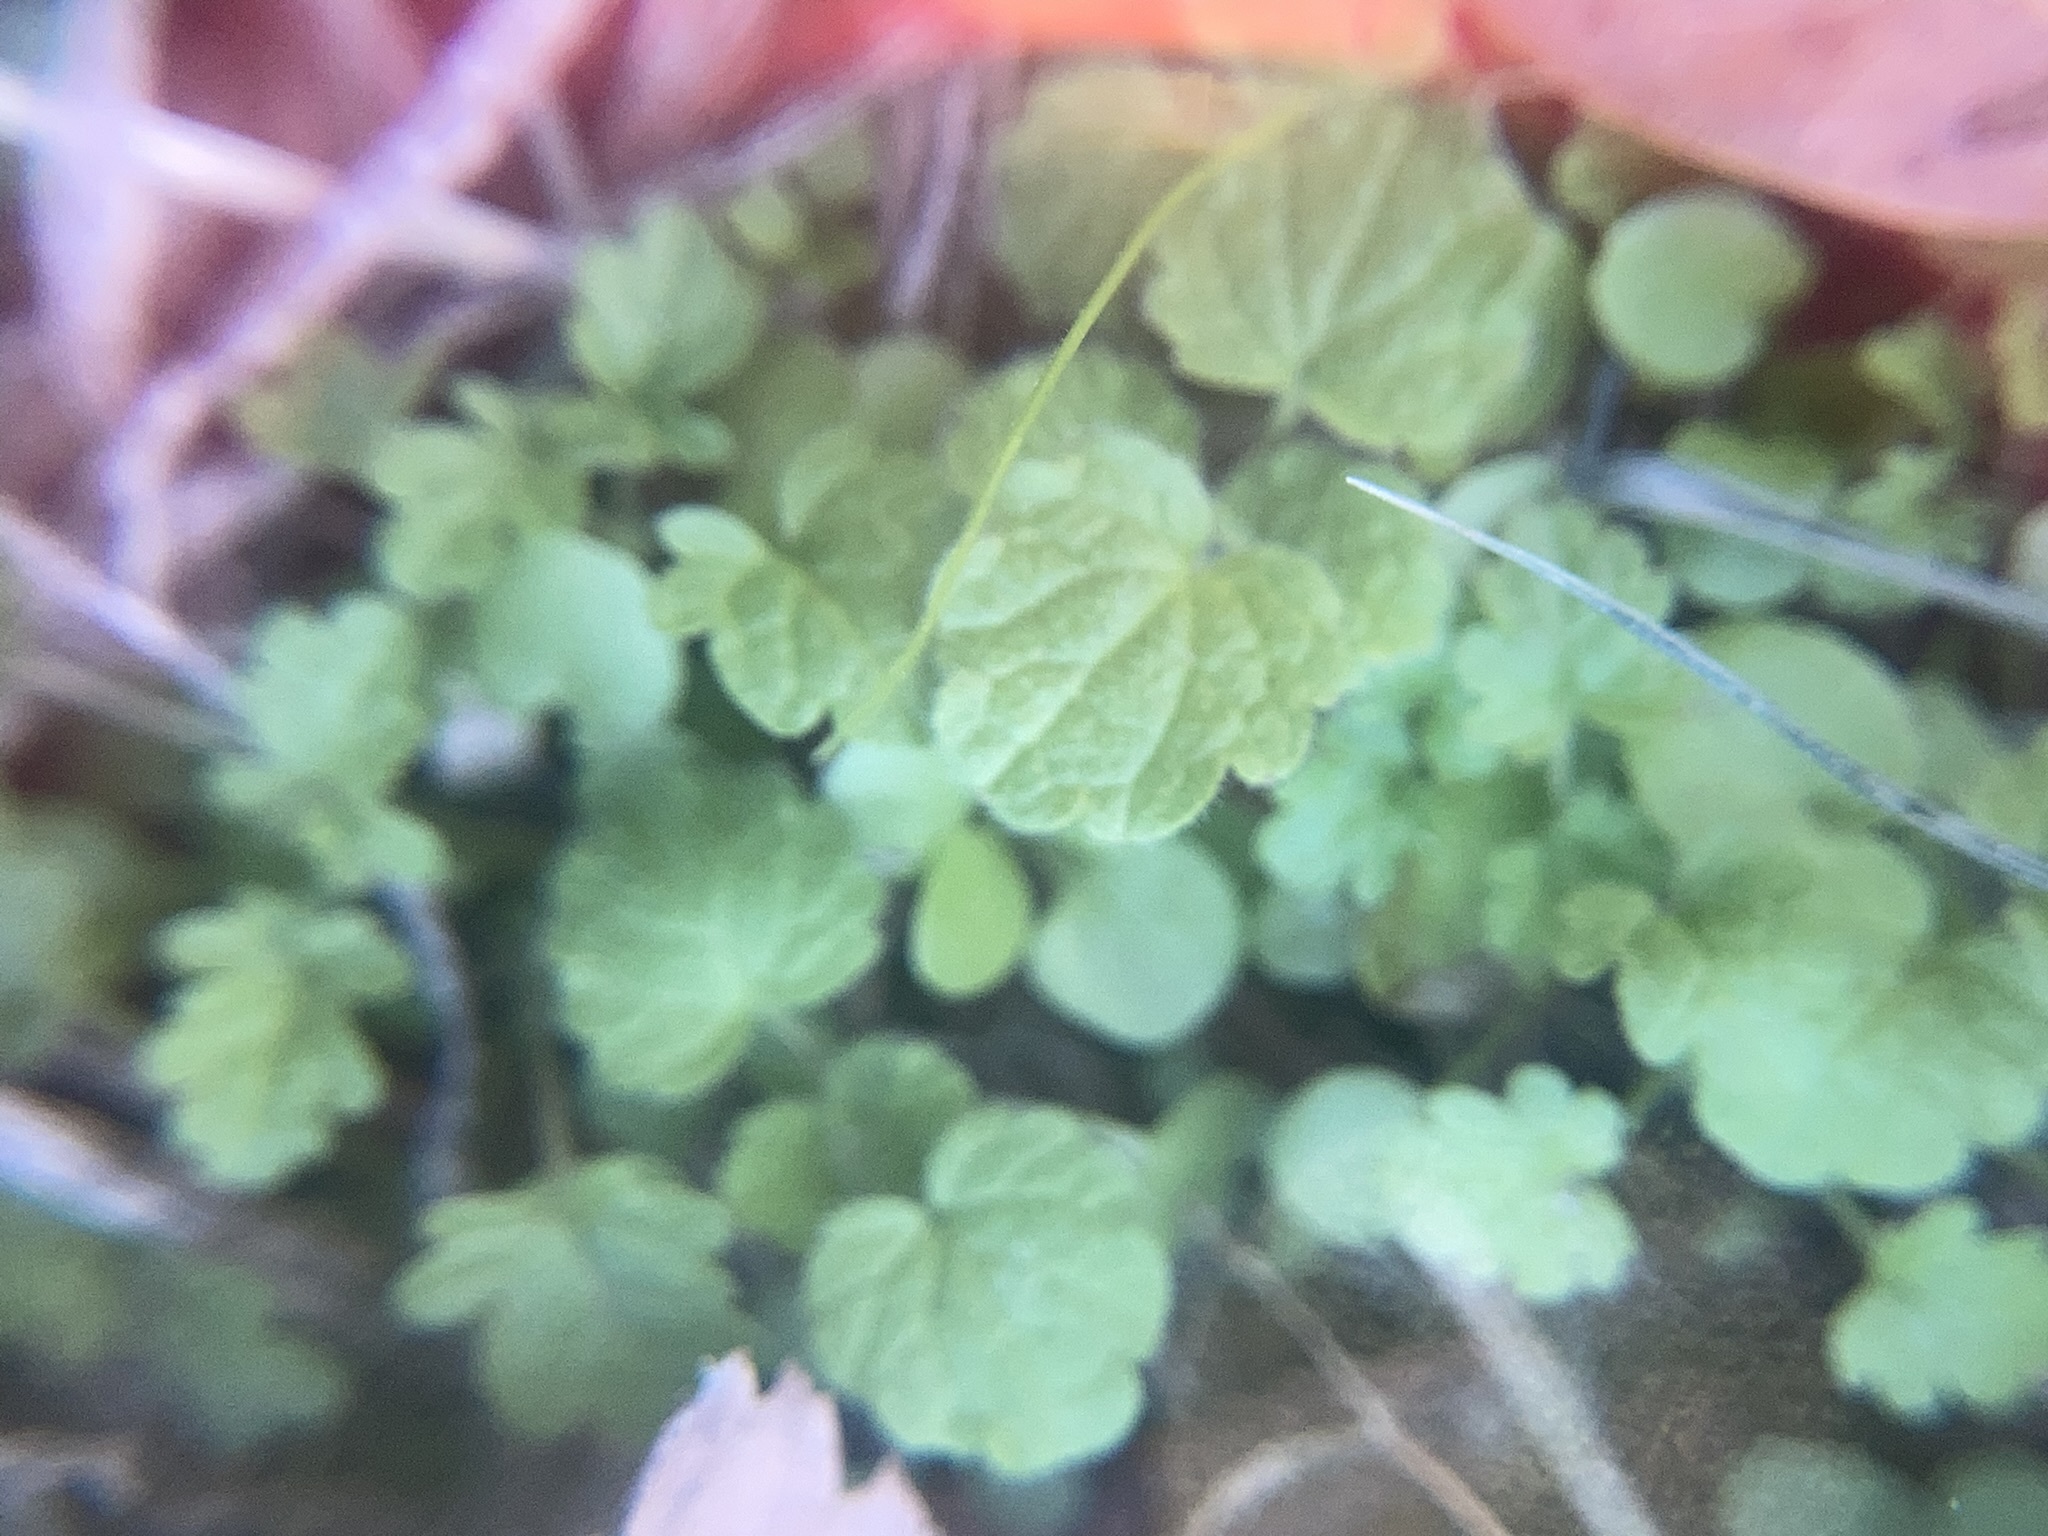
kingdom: Plantae
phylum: Tracheophyta
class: Magnoliopsida
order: Lamiales
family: Lamiaceae
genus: Lamium
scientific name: Lamium amplexicaule
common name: Henbit dead-nettle
